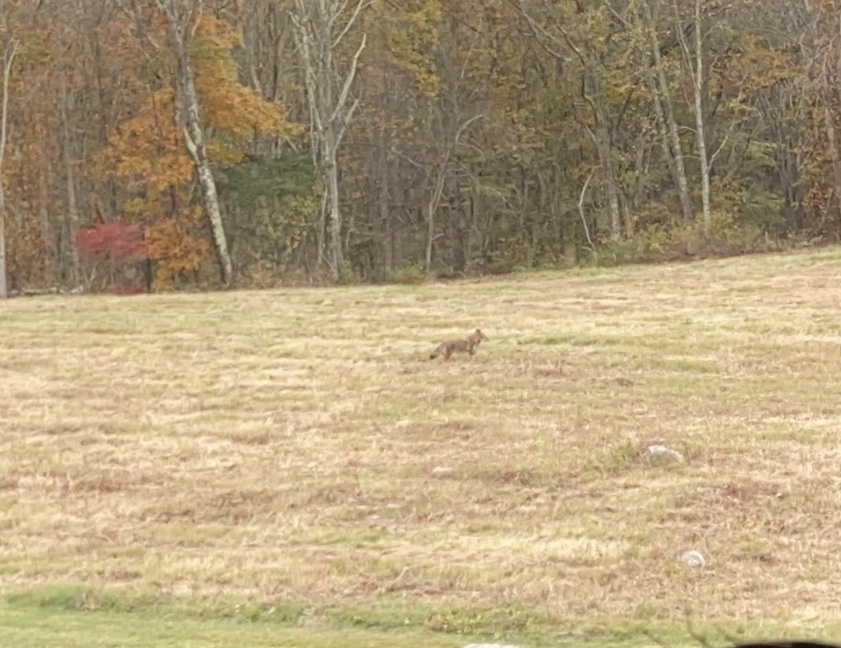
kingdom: Animalia
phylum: Chordata
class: Mammalia
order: Carnivora
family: Canidae
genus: Canis
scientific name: Canis latrans
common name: Coyote
